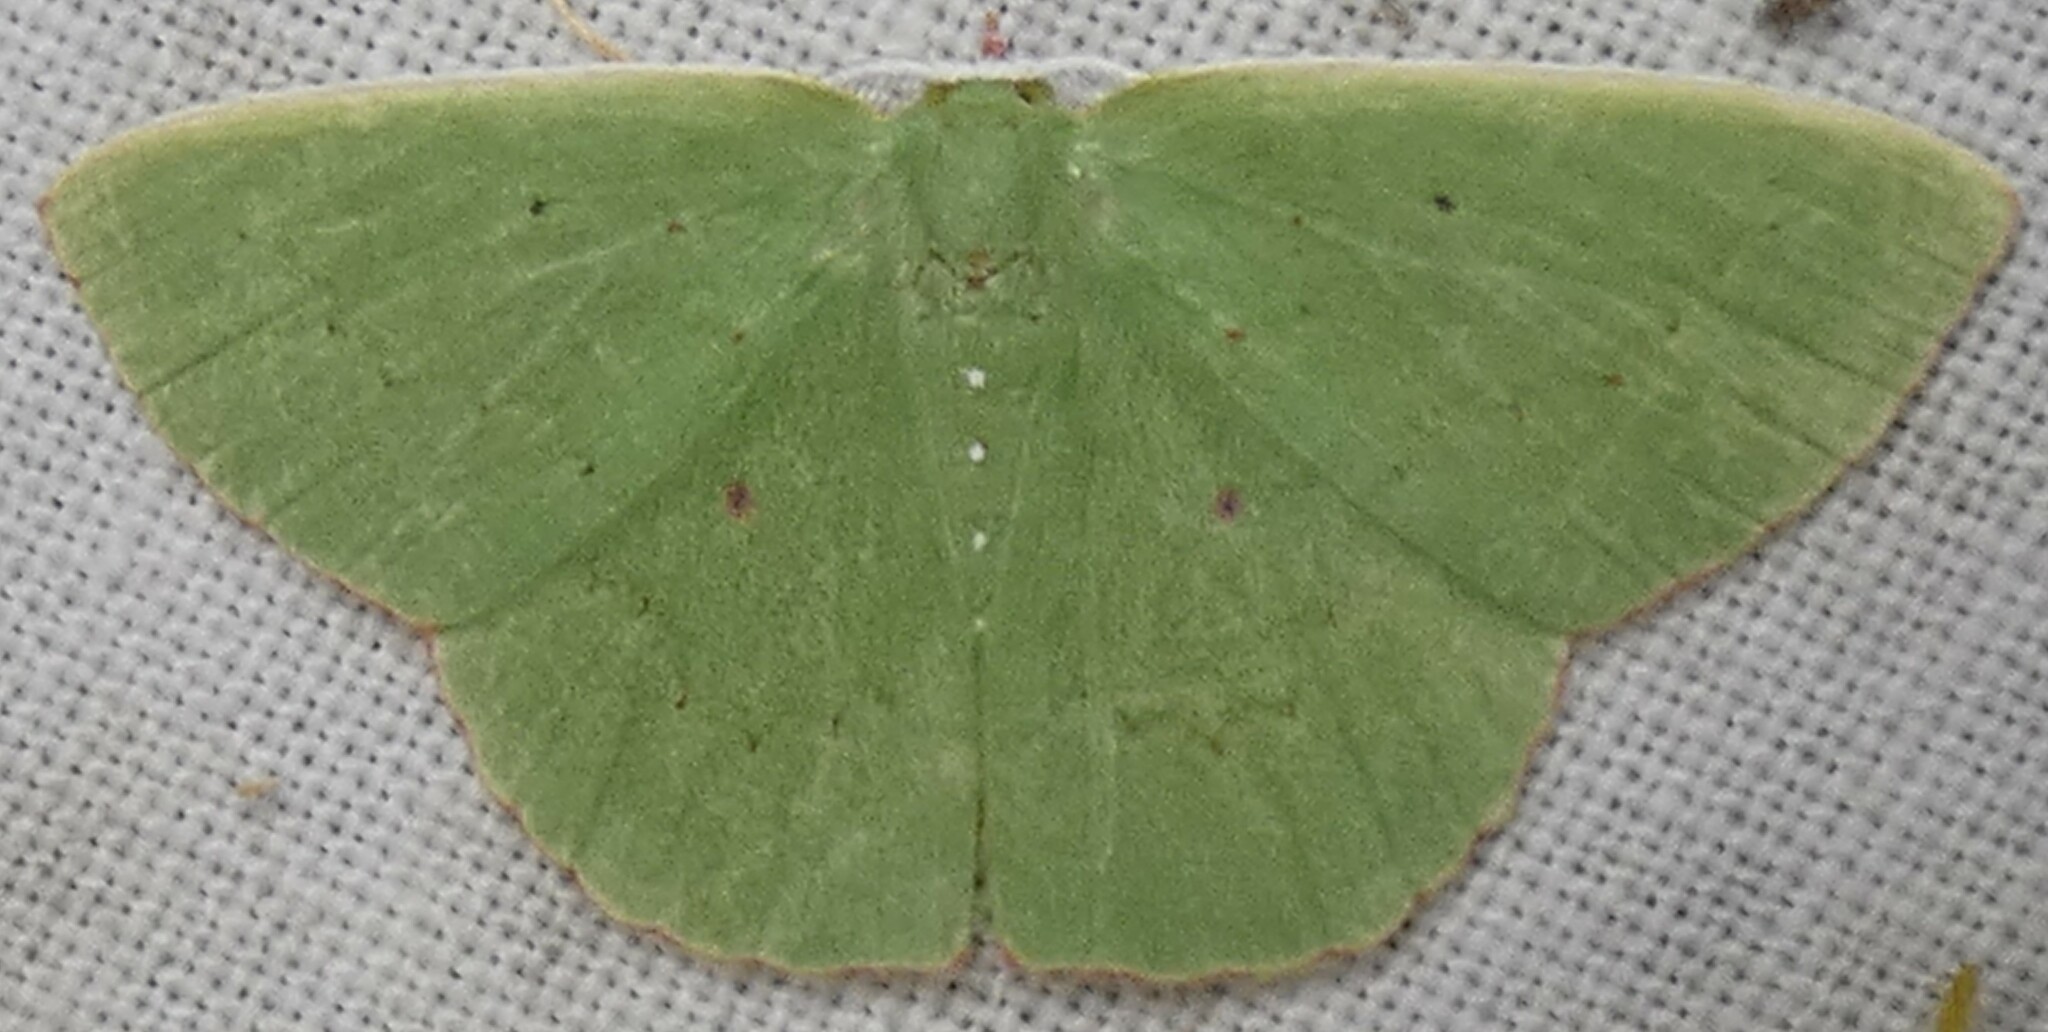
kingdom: Animalia
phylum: Arthropoda
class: Insecta
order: Lepidoptera
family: Geometridae
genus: Phrudocentra
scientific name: Phrudocentra centrifugaria
